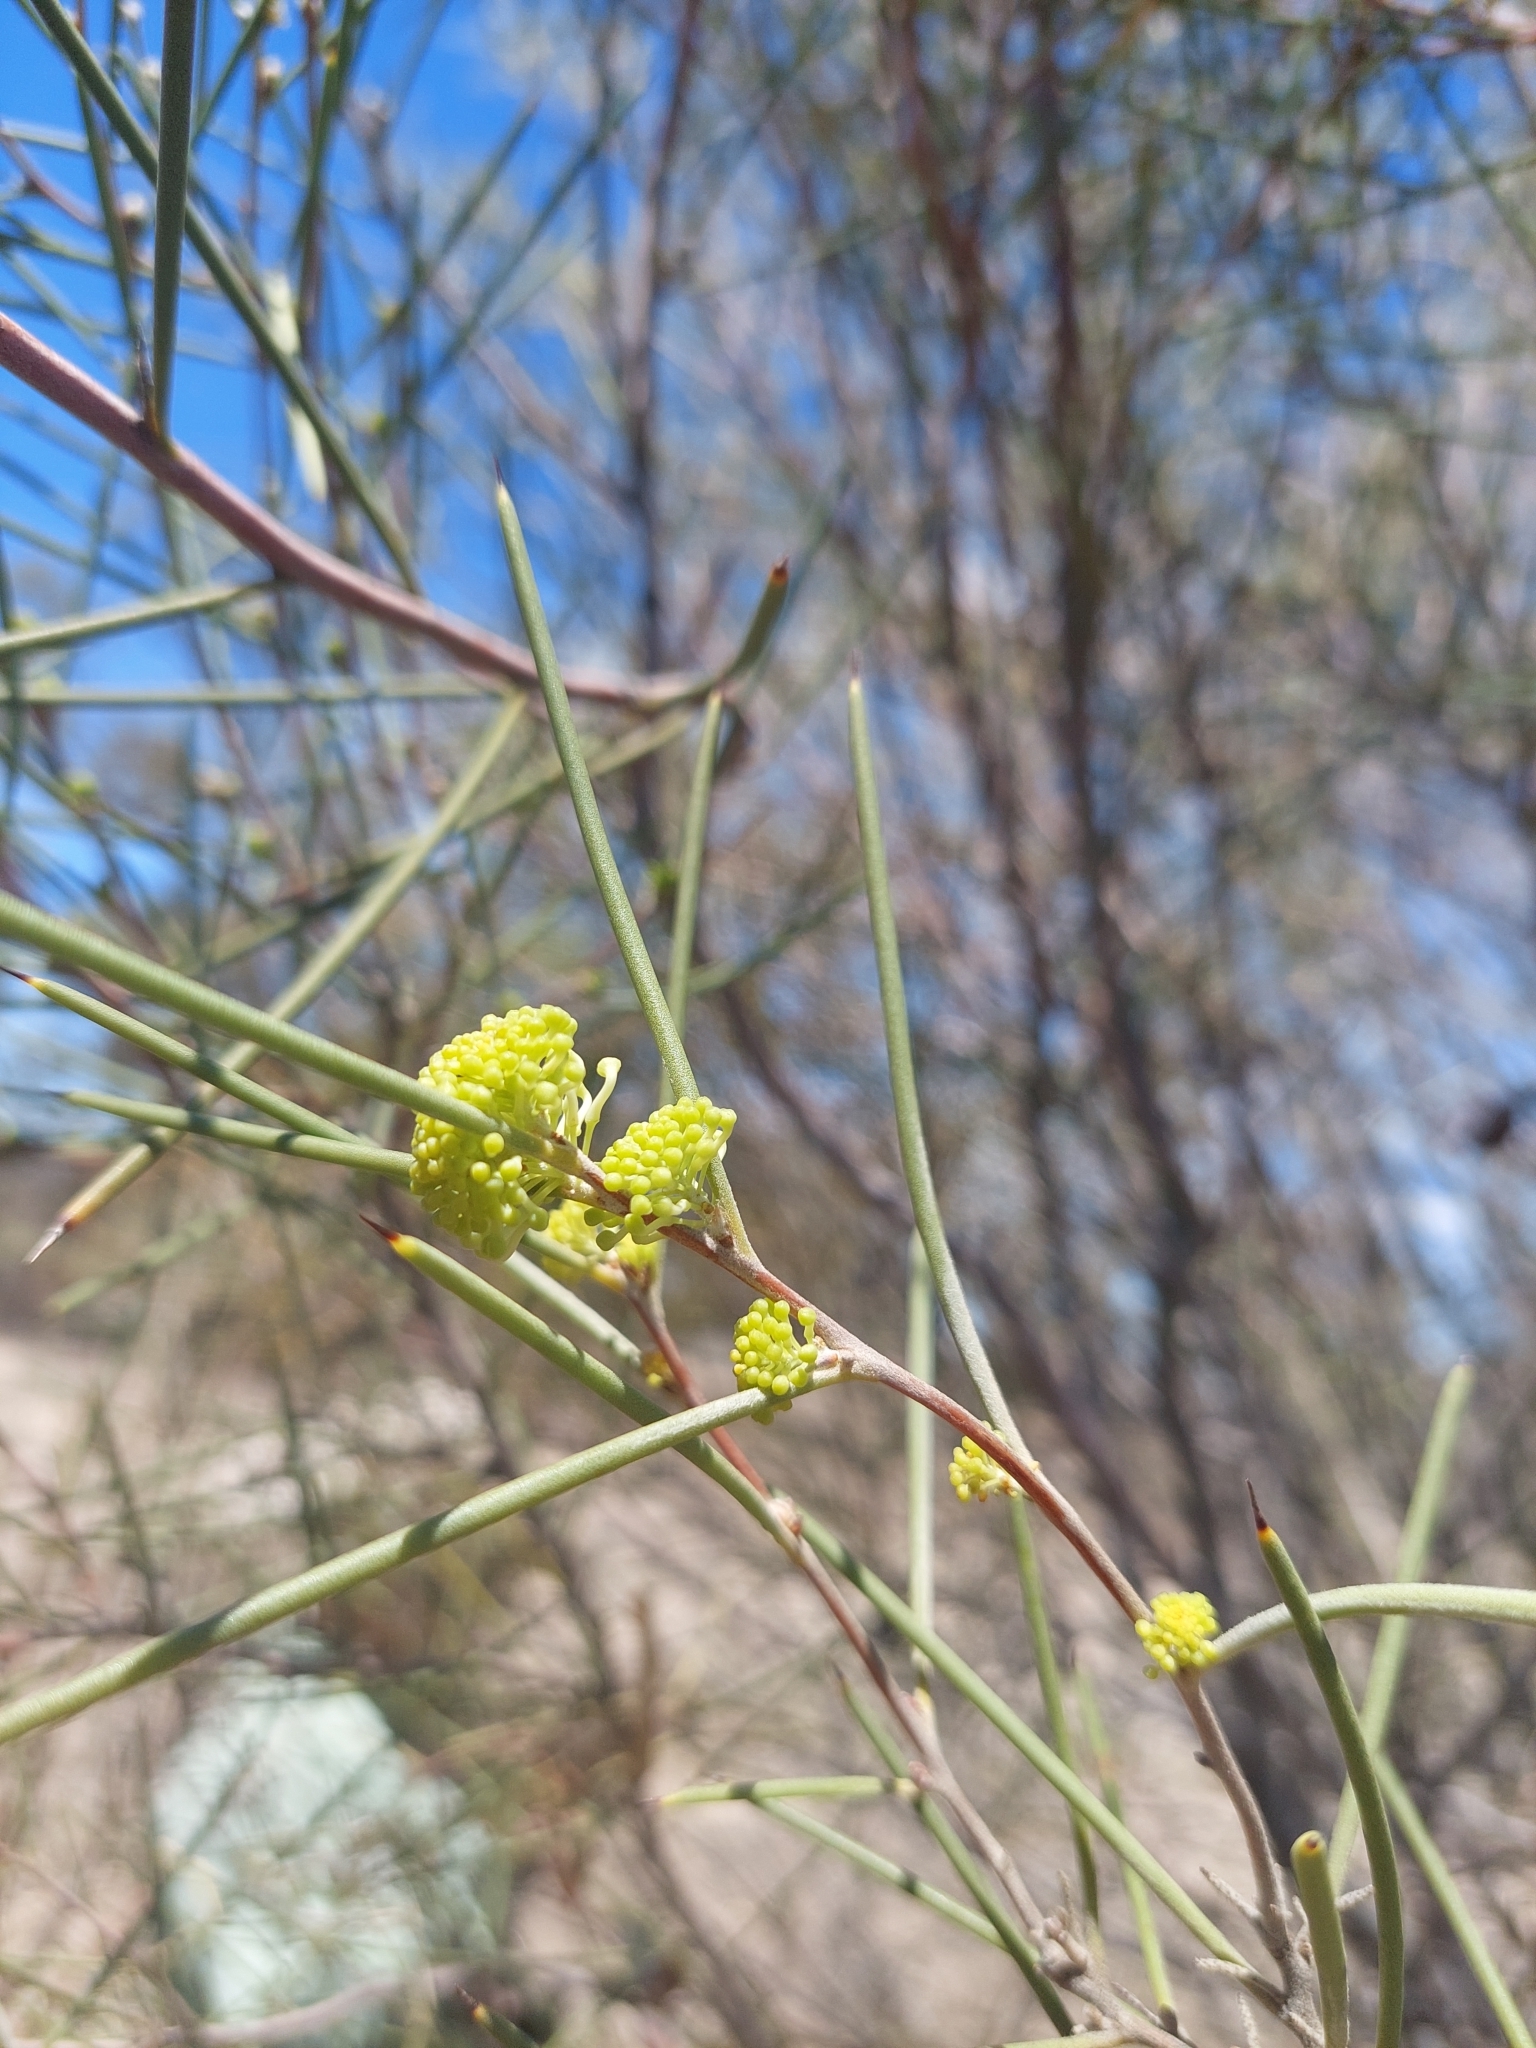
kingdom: Plantae
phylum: Tracheophyta
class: Magnoliopsida
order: Proteales
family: Proteaceae
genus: Hakea
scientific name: Hakea leucoptera
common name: Pinbush
